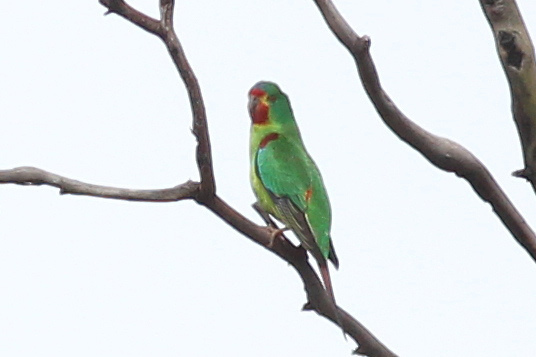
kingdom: Animalia
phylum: Chordata
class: Aves
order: Psittaciformes
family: Psittacidae
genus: Lathamus
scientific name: Lathamus discolor
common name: Swift parrot
